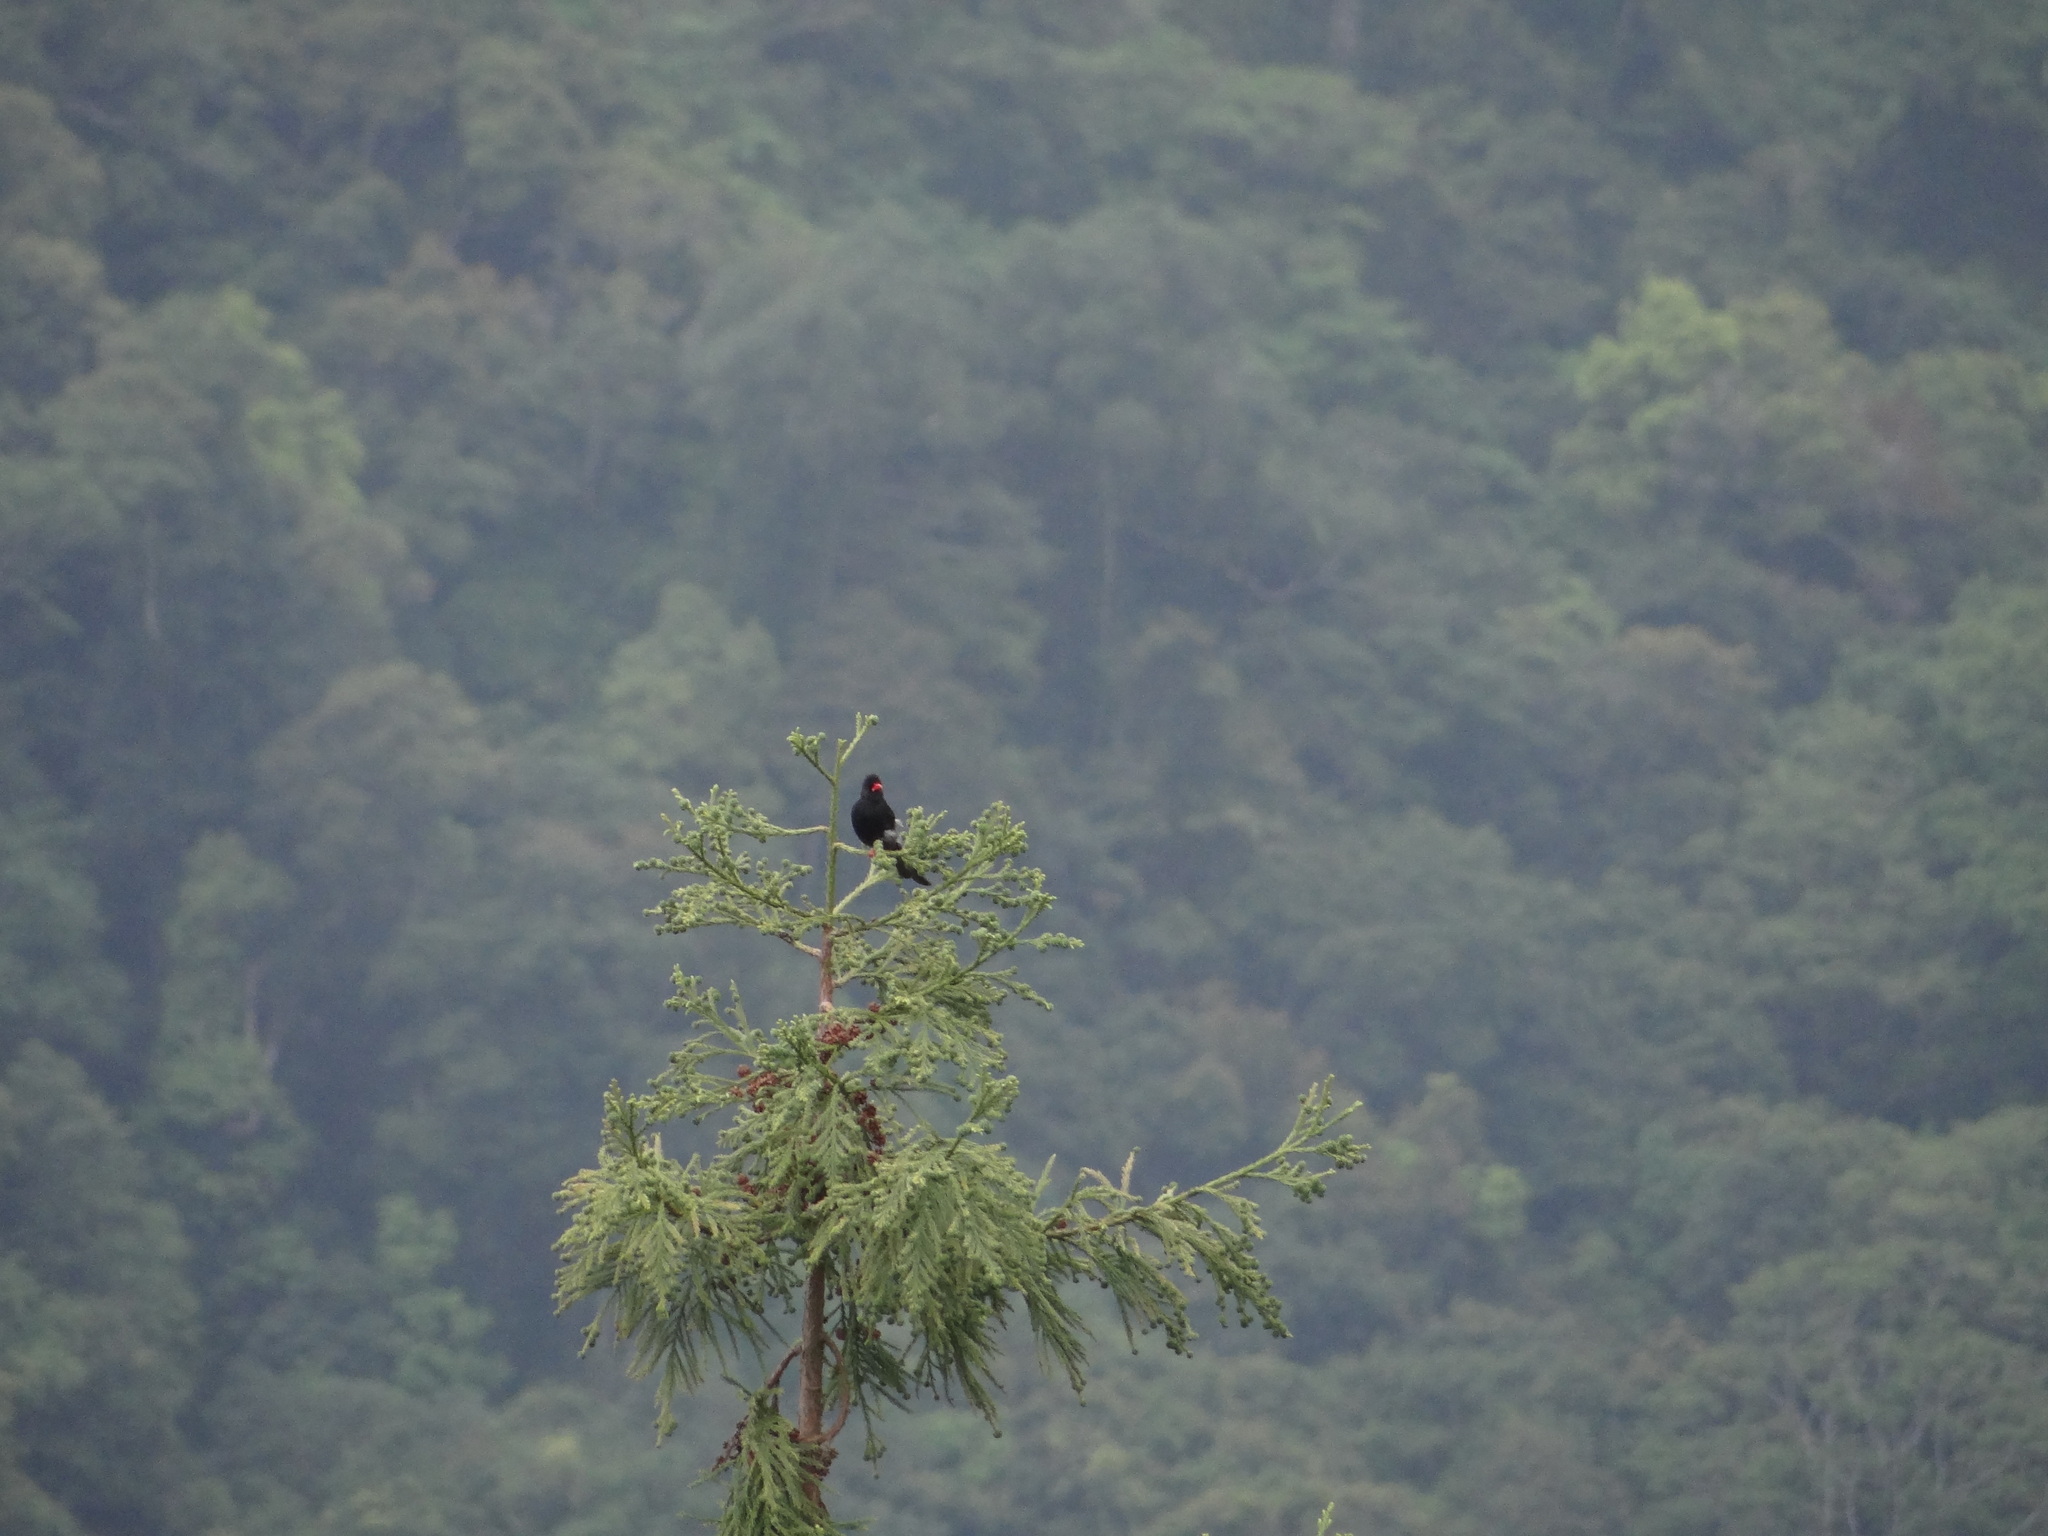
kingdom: Animalia
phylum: Chordata
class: Aves
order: Passeriformes
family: Pycnonotidae
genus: Hypsipetes
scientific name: Hypsipetes leucocephalus
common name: Black bulbul
